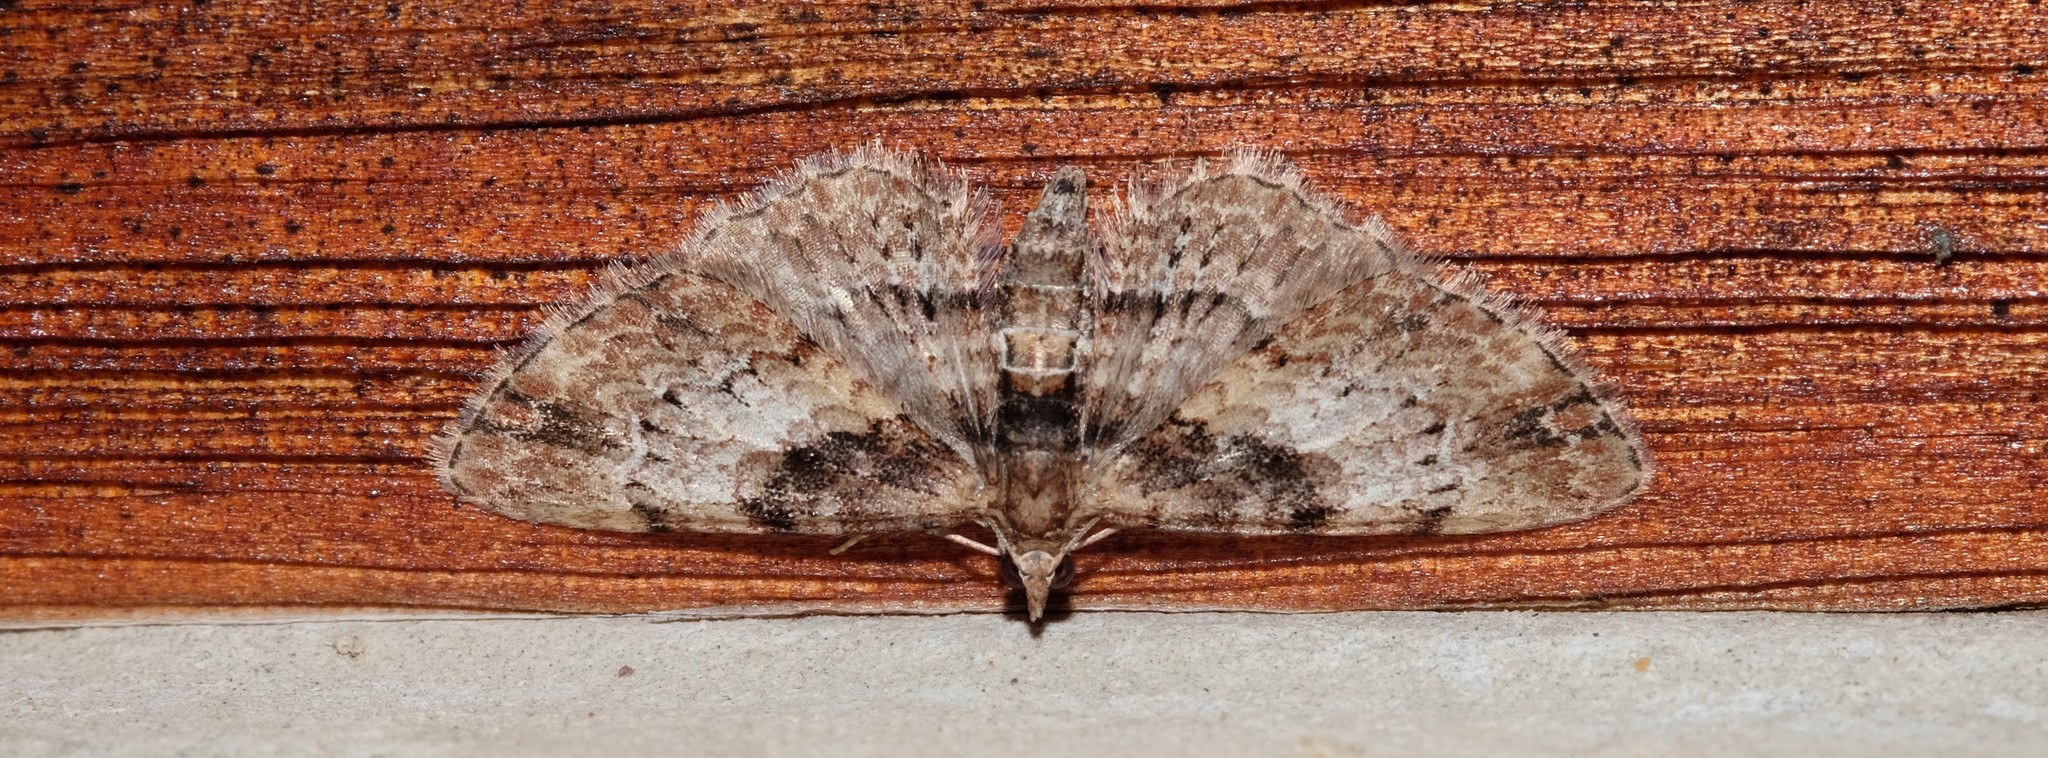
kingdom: Animalia
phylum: Arthropoda
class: Insecta
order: Lepidoptera
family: Geometridae
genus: Chloroclystis
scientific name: Chloroclystis approximata
